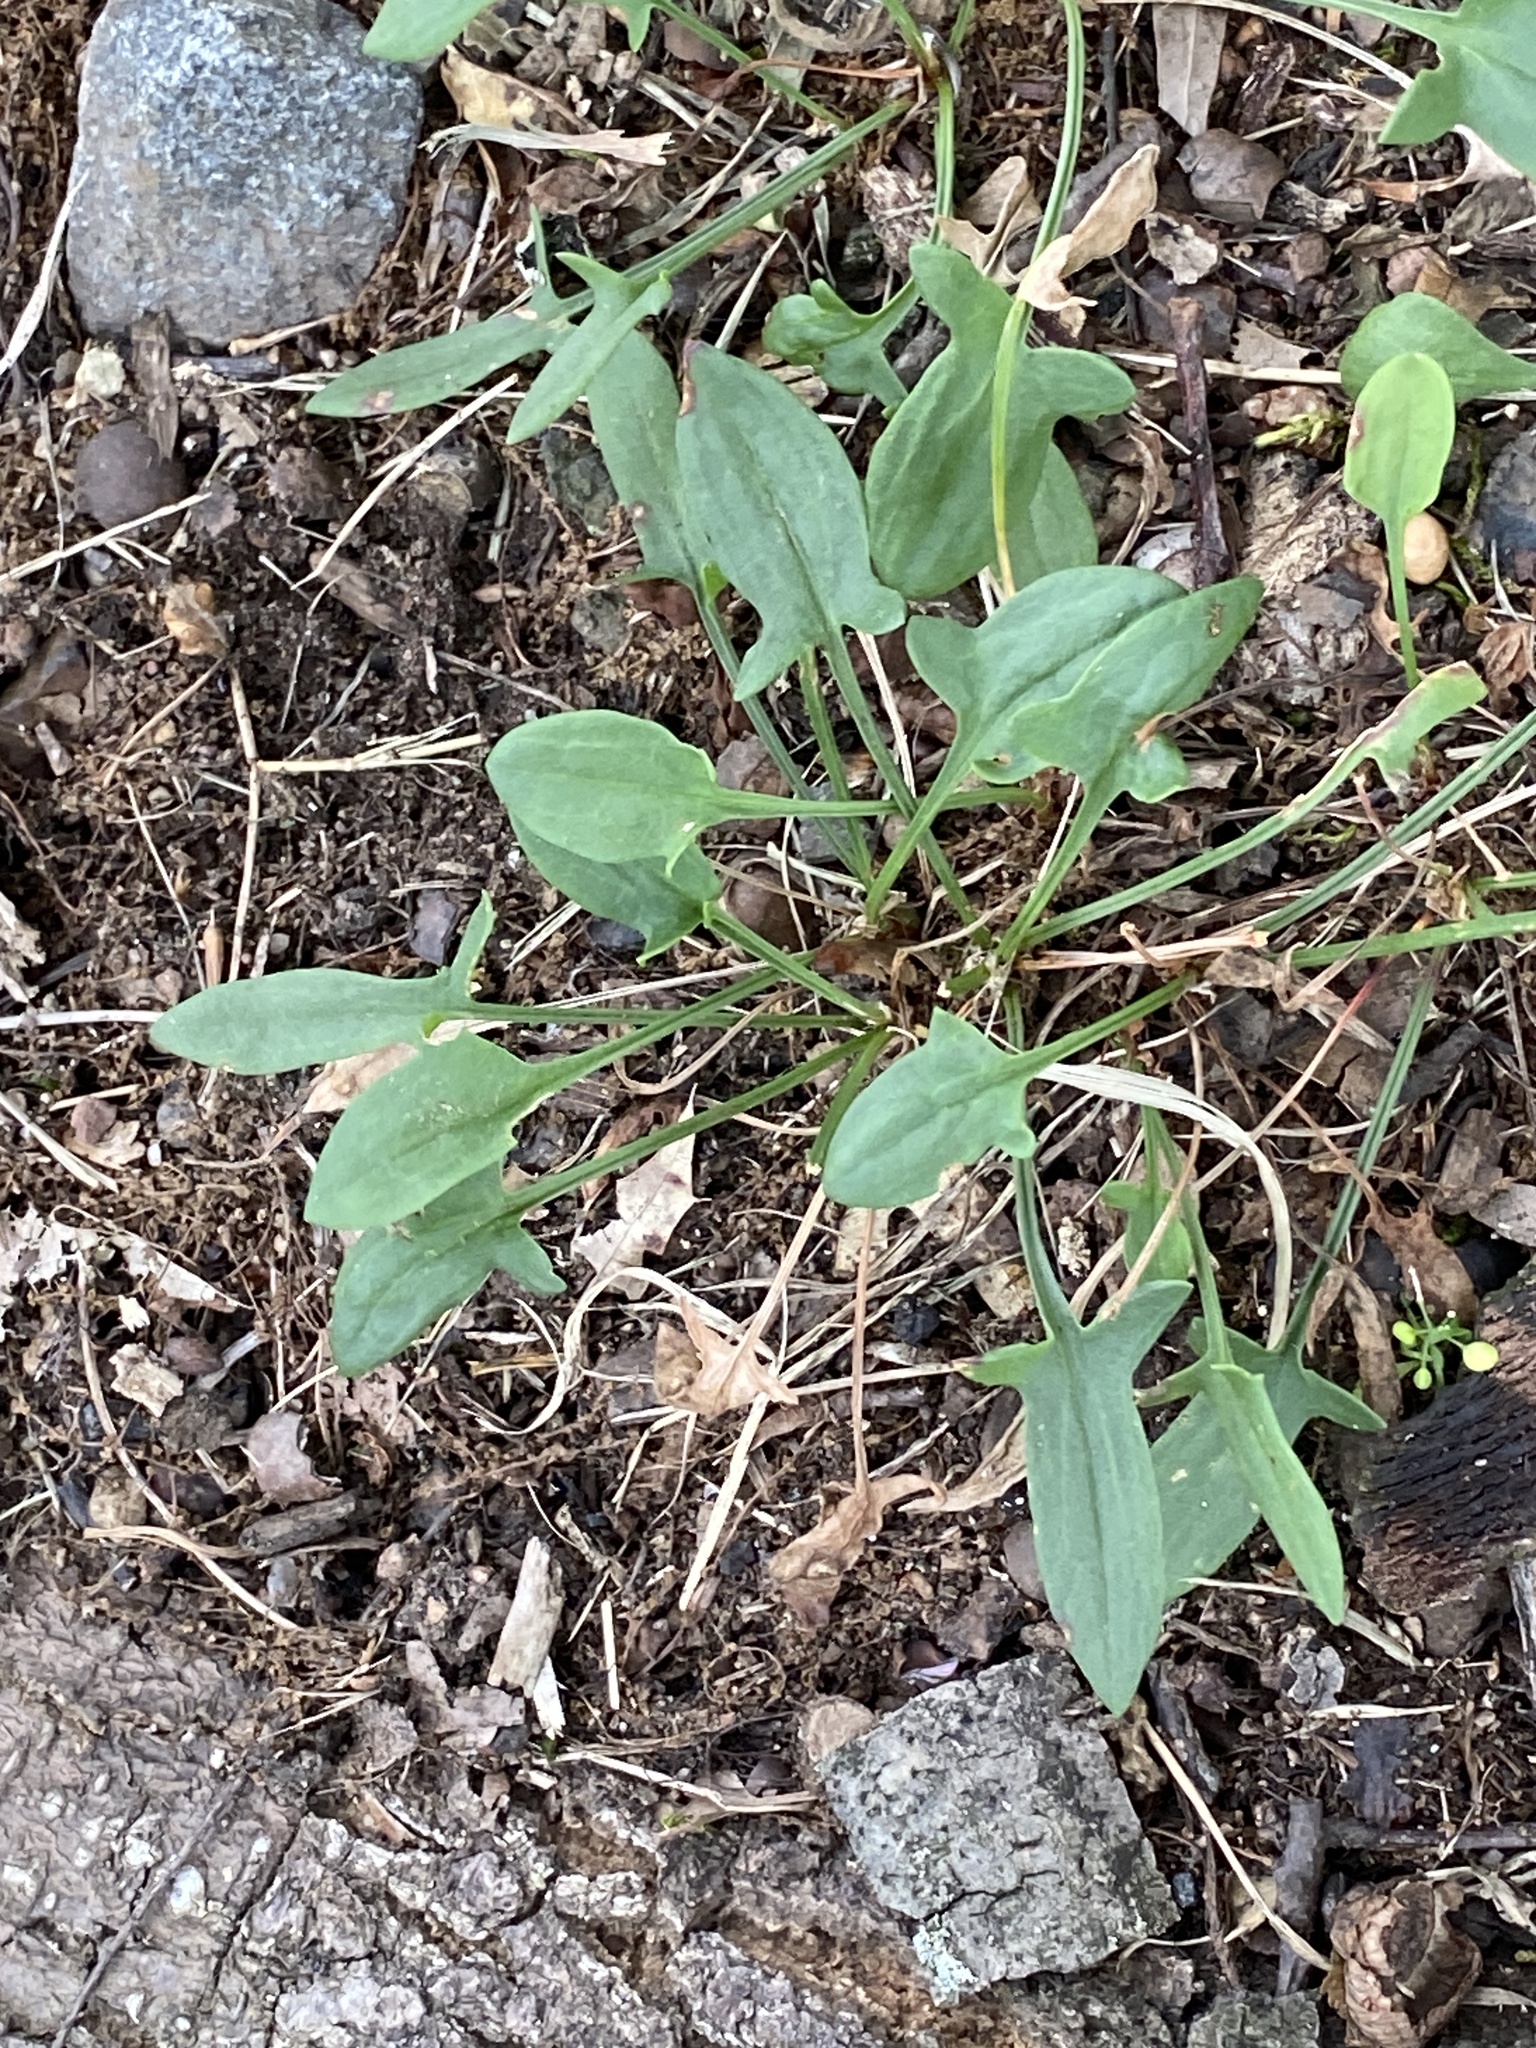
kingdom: Plantae
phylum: Tracheophyta
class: Magnoliopsida
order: Caryophyllales
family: Polygonaceae
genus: Rumex
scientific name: Rumex acetosella
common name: Common sheep sorrel
